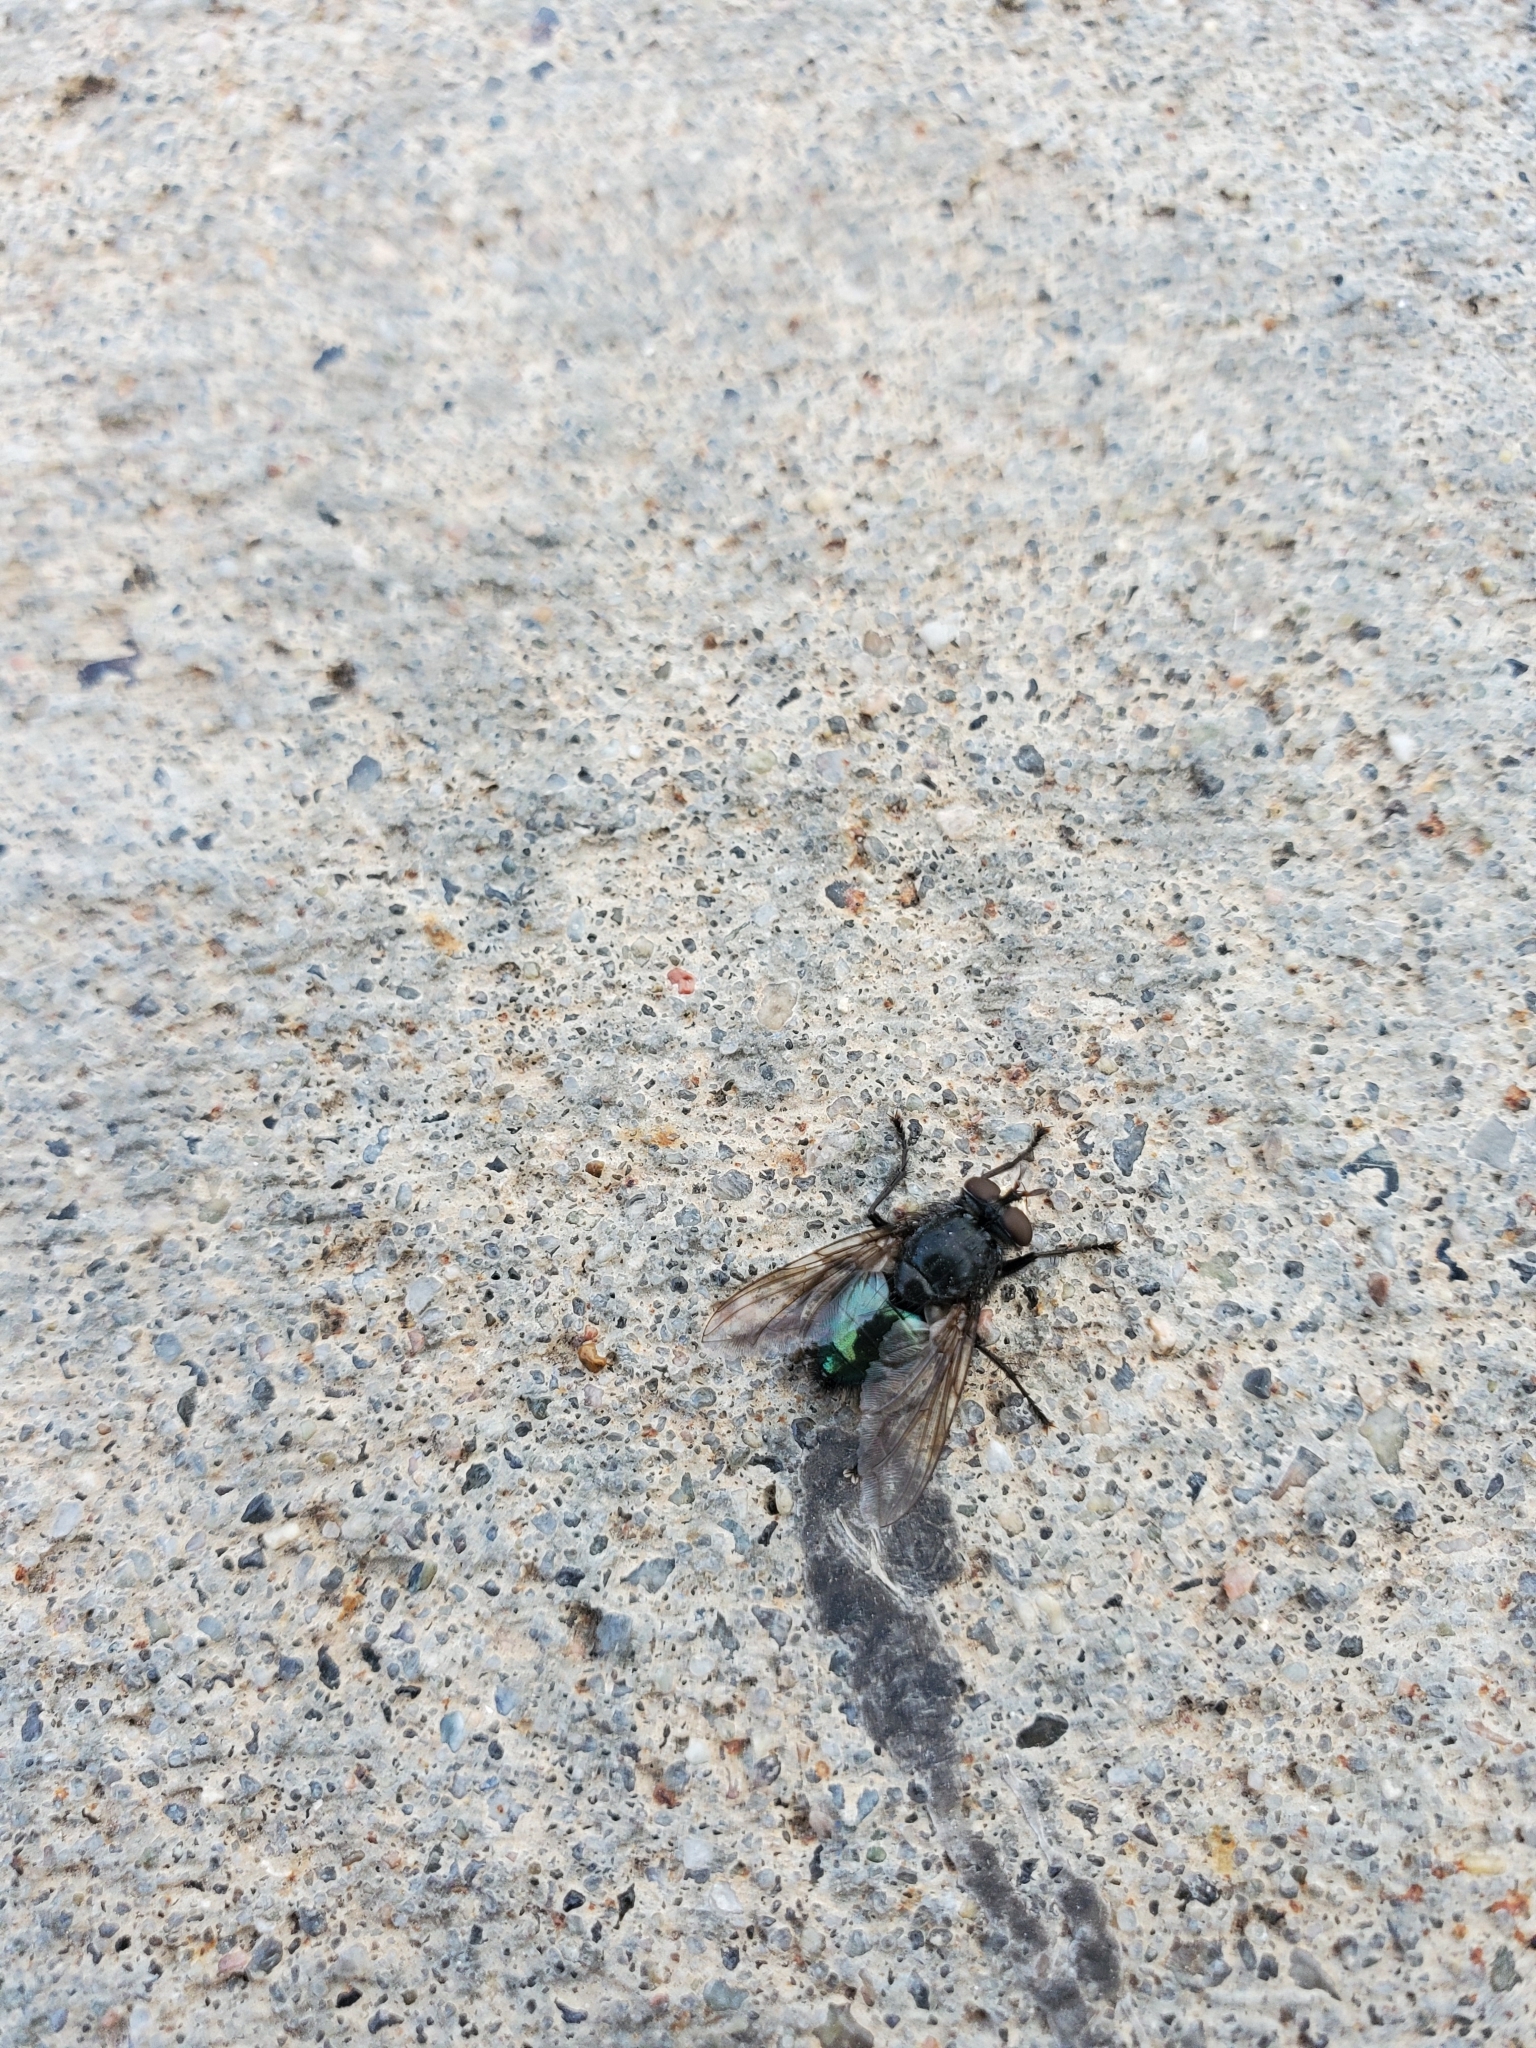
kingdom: Animalia
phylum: Arthropoda
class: Insecta
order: Diptera
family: Calliphoridae
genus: Cynomya
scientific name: Cynomya cadaverina
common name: Shiny blue bottle fly
